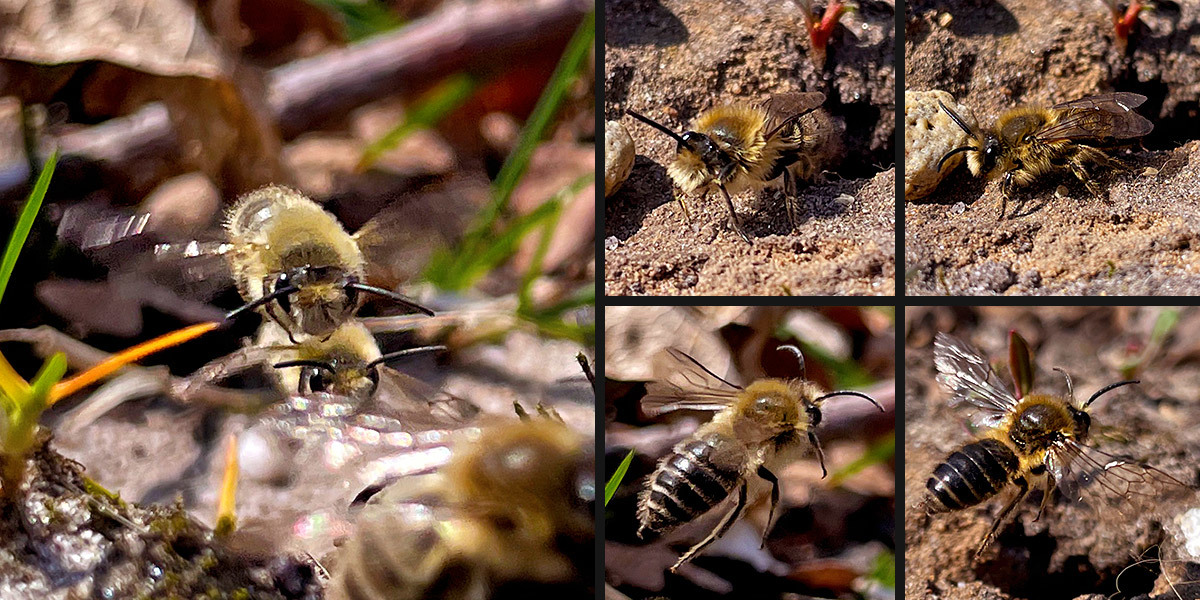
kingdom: Animalia
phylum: Arthropoda
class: Insecta
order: Hymenoptera
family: Colletidae
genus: Colletes
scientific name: Colletes cunicularius
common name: Early colletes
